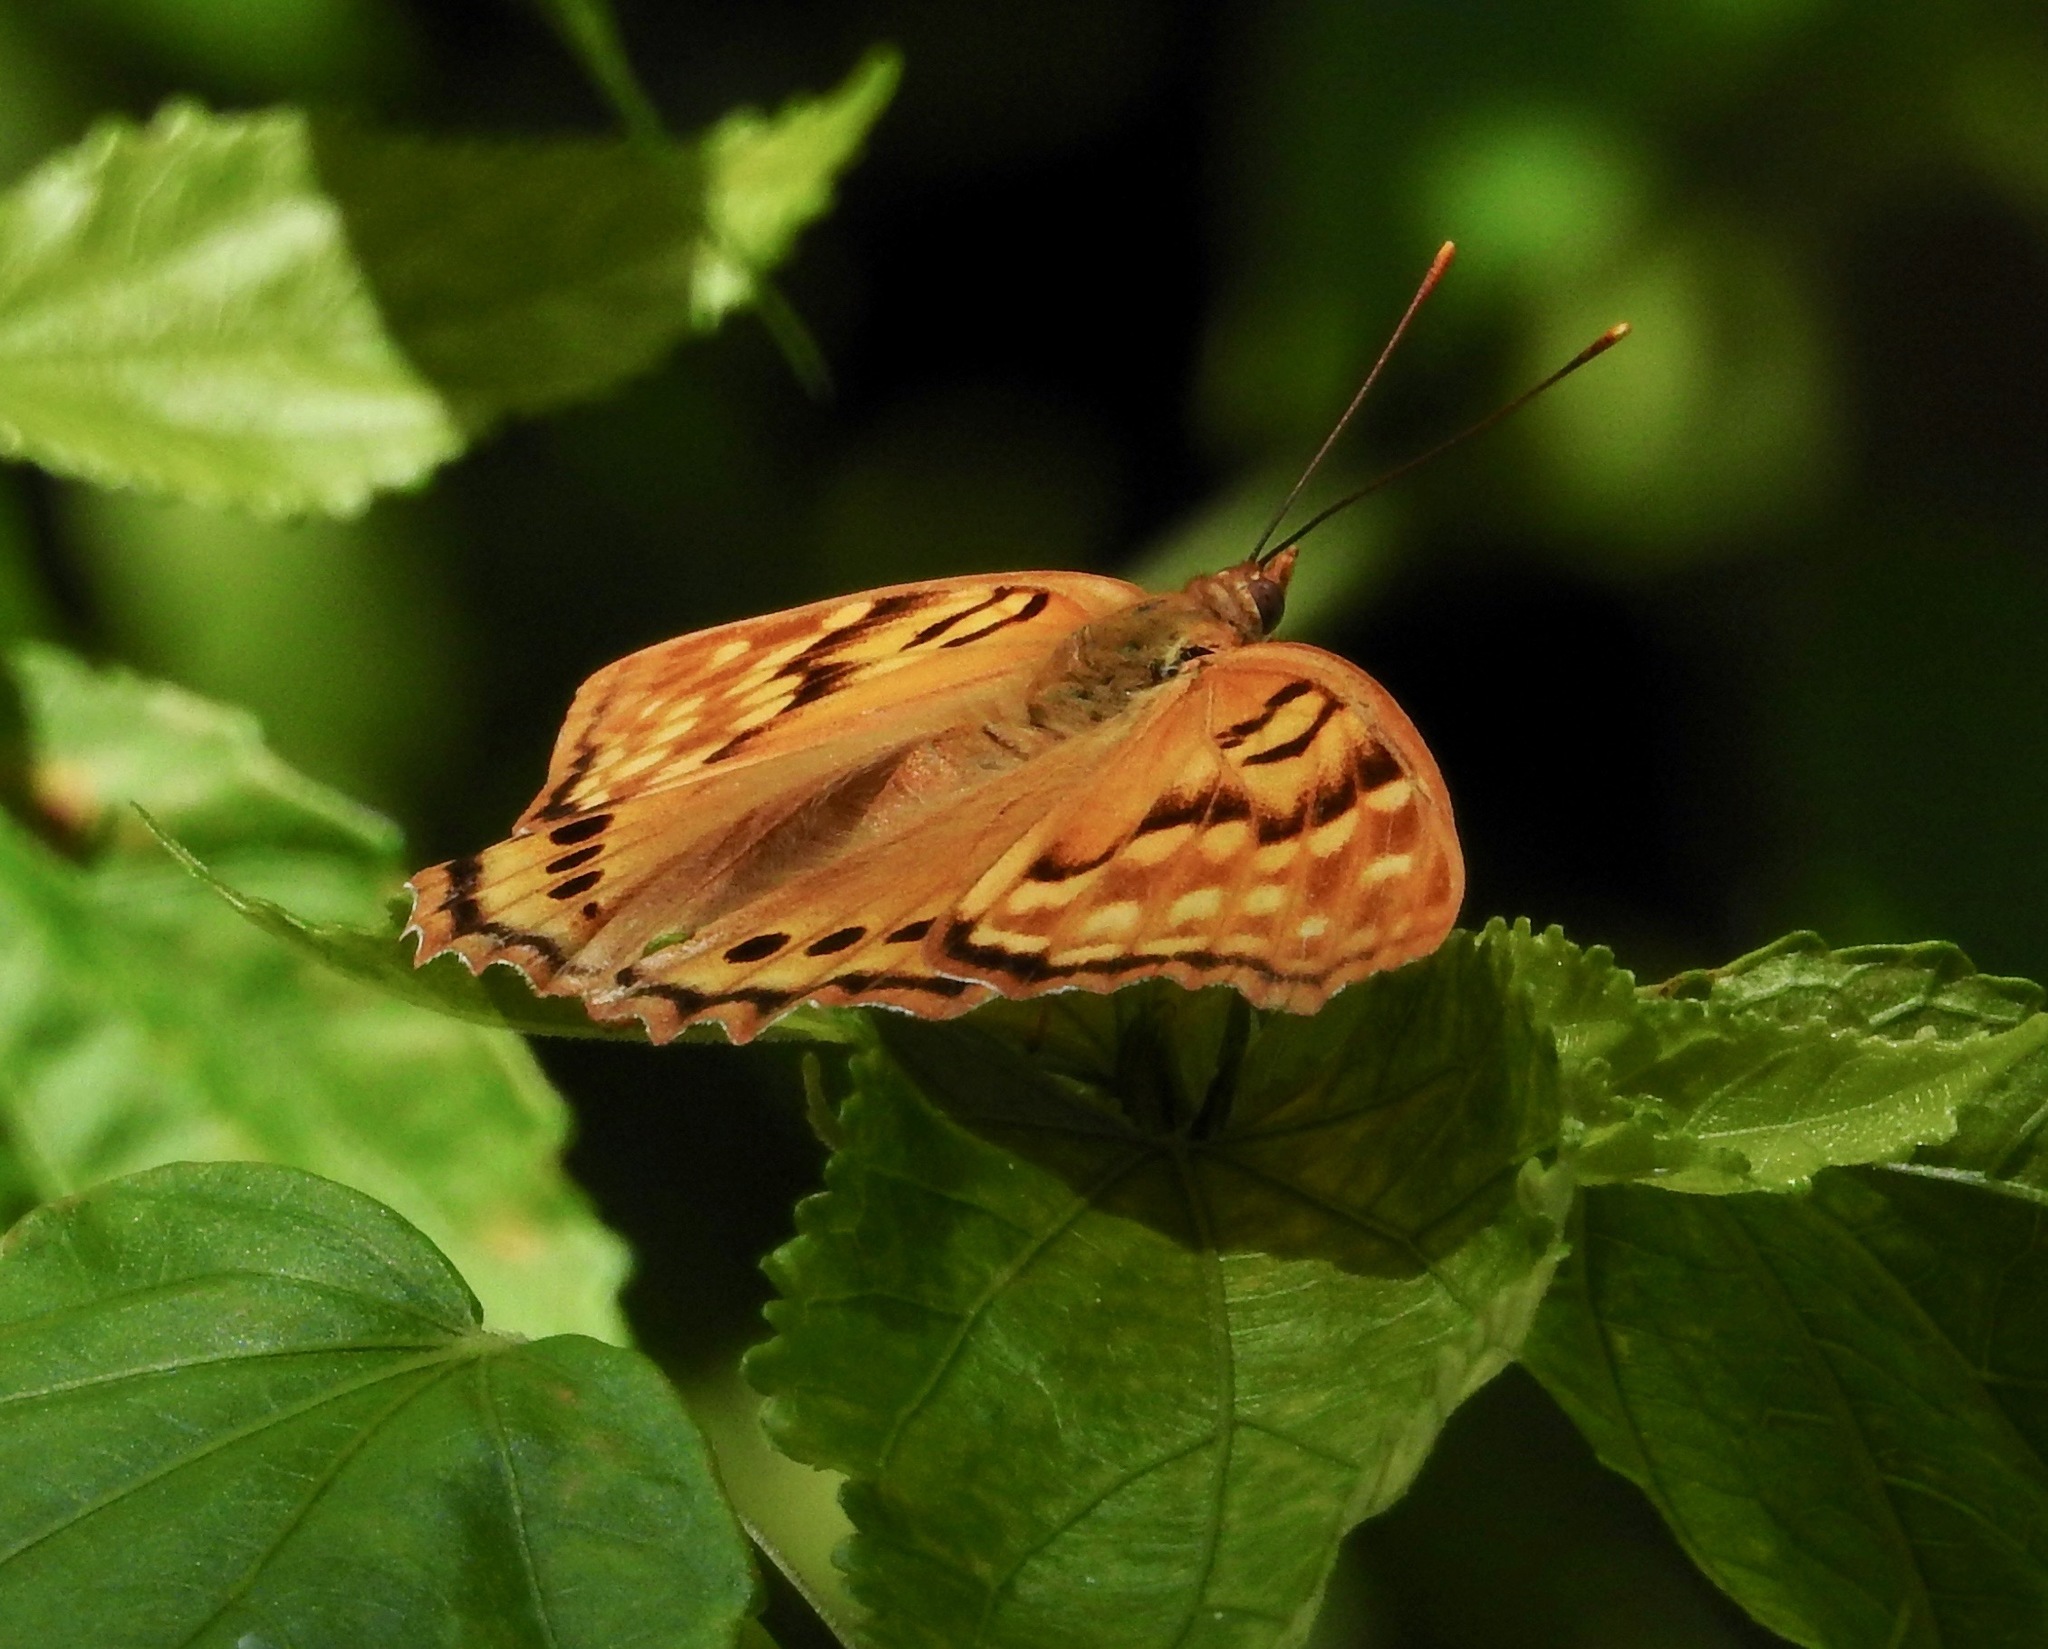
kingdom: Animalia
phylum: Arthropoda
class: Insecta
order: Lepidoptera
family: Nymphalidae
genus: Asterocampa
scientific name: Asterocampa clyton
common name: Tawny emperor
